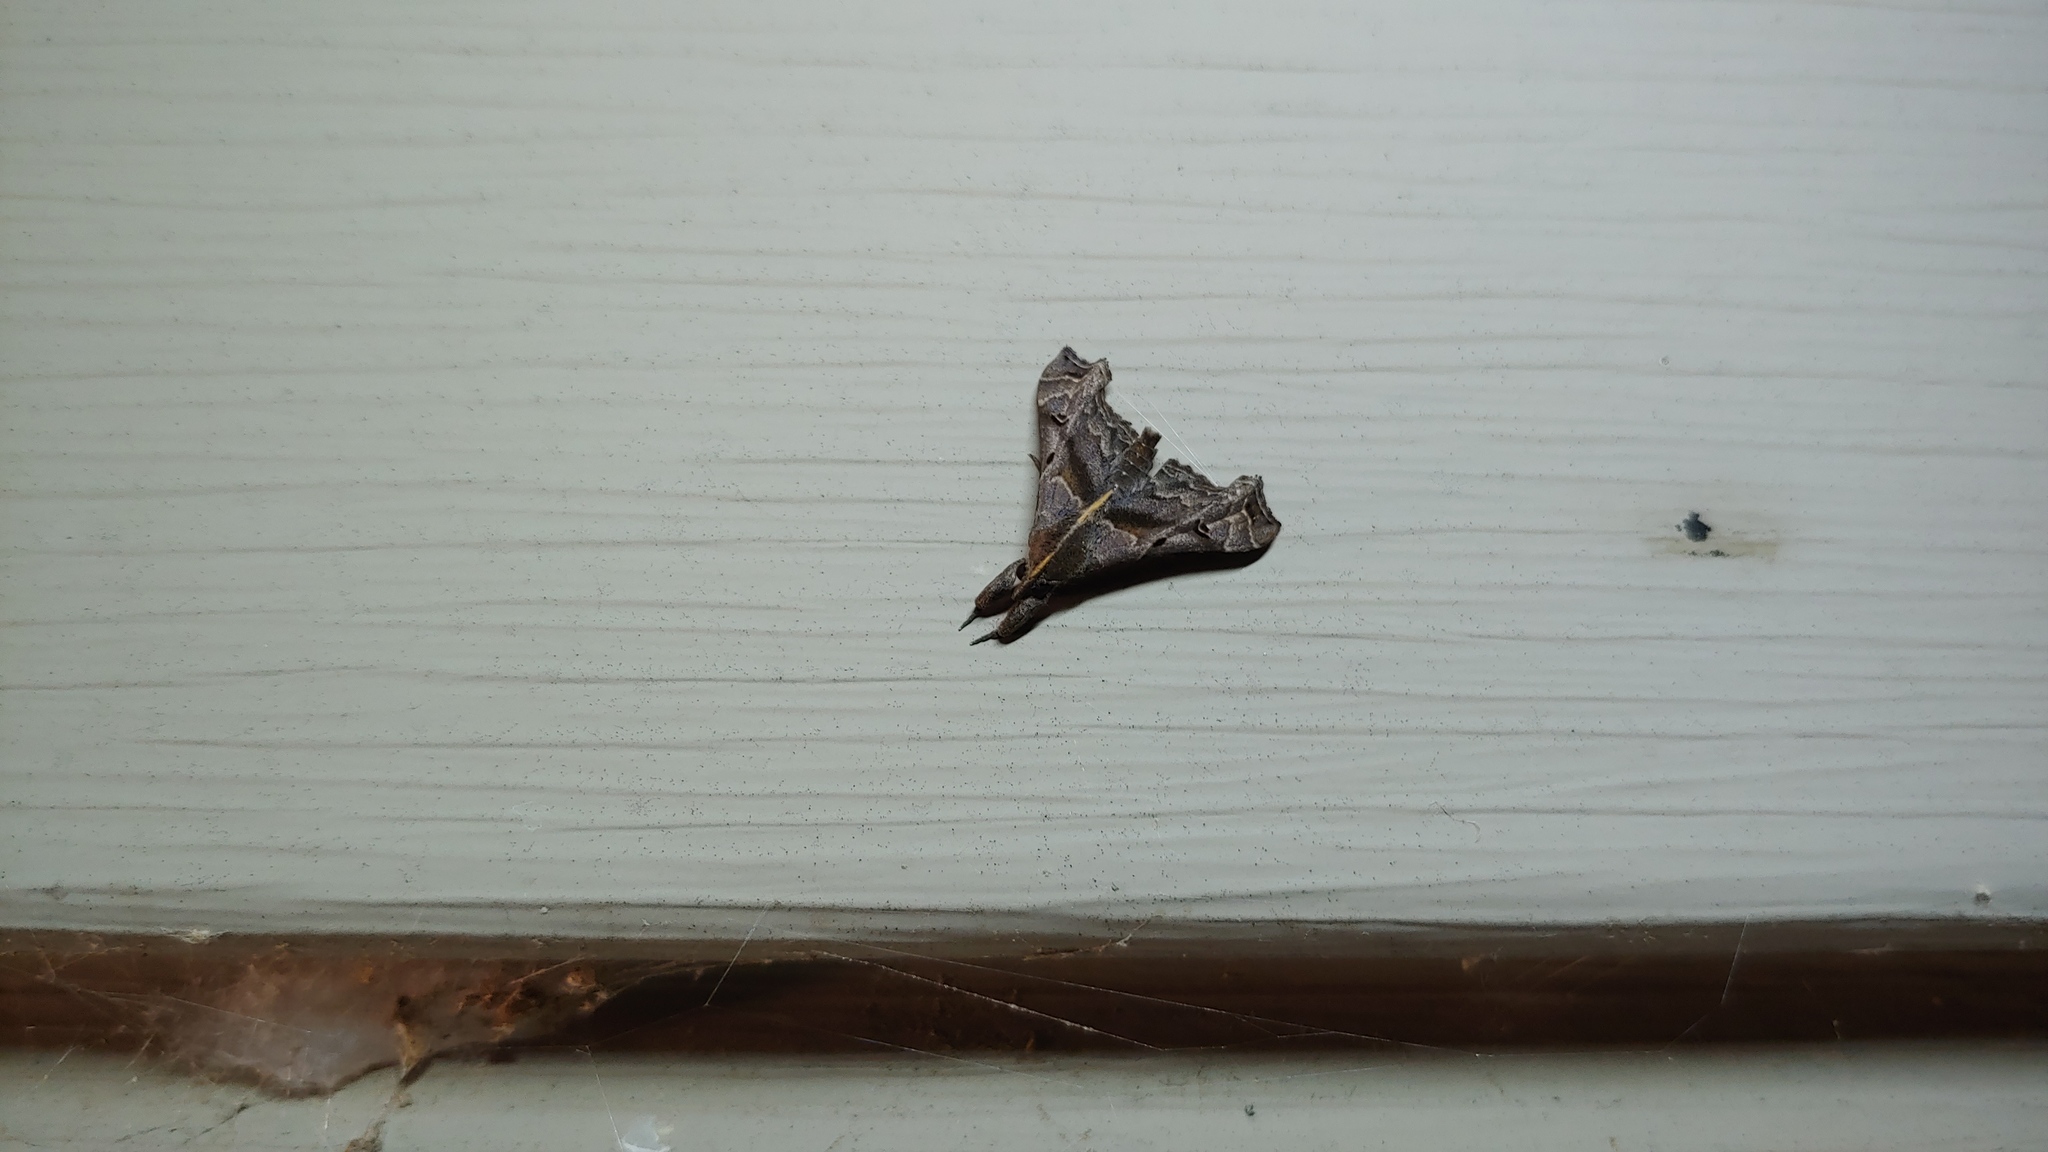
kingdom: Animalia
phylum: Arthropoda
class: Insecta
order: Lepidoptera
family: Erebidae
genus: Palthis
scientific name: Palthis asopialis
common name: Faint-spotted palthis moth
